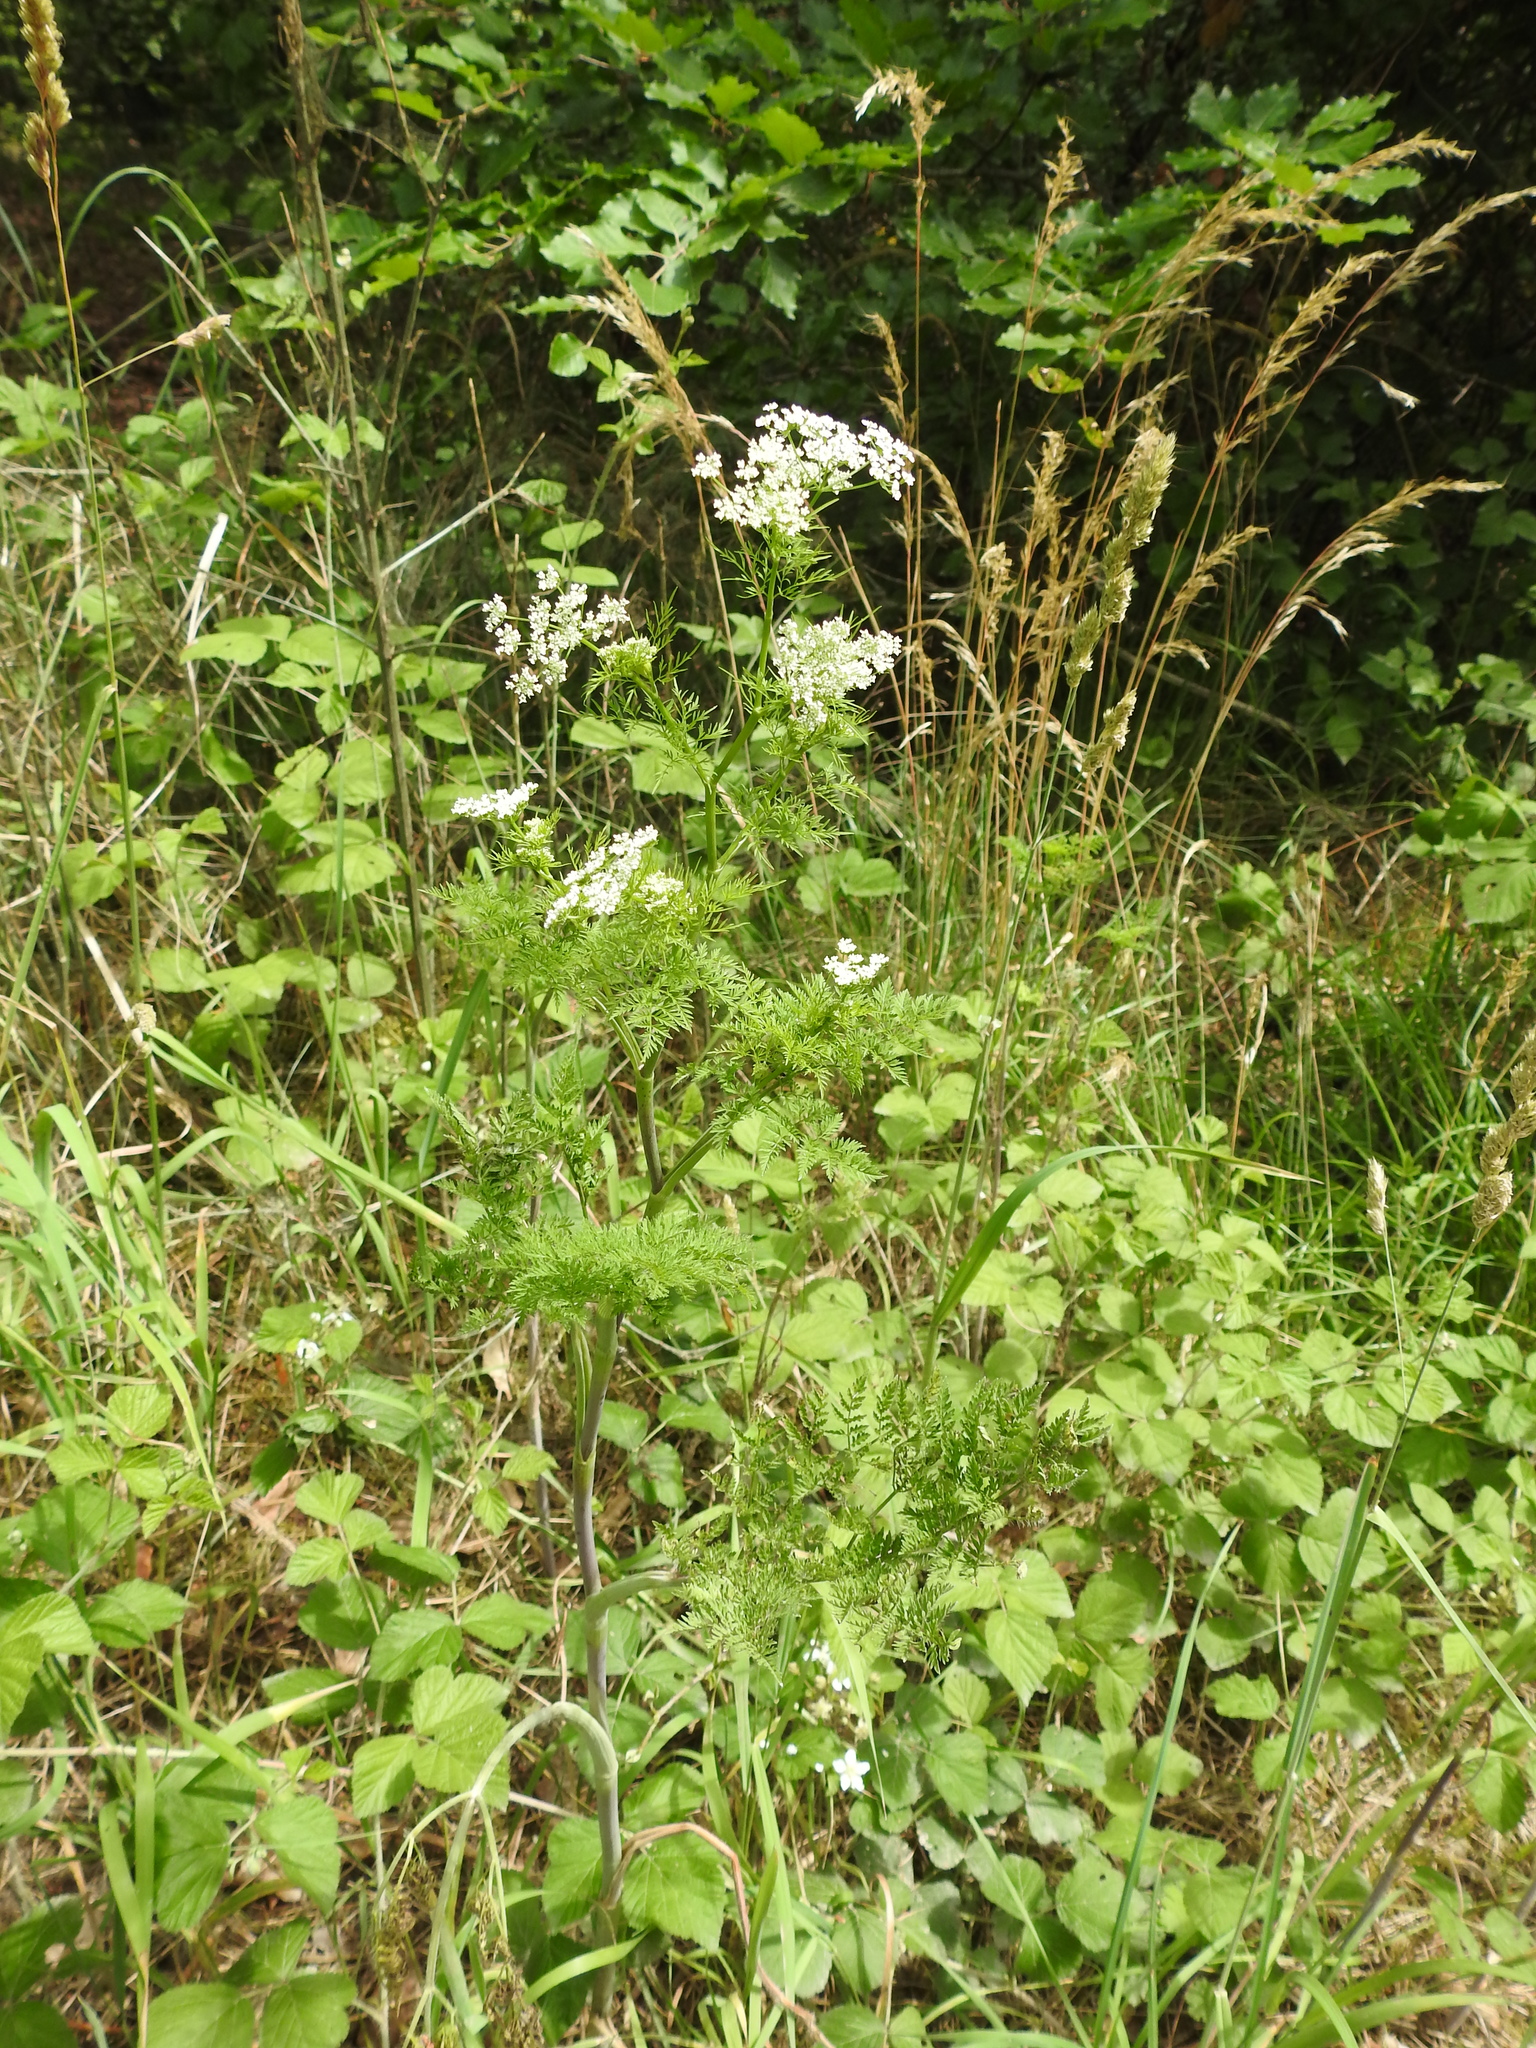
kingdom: Plantae
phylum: Tracheophyta
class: Magnoliopsida
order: Apiales
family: Apiaceae
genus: Chaerophyllum
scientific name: Chaerophyllum bulbosum
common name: Bulbous chervil
